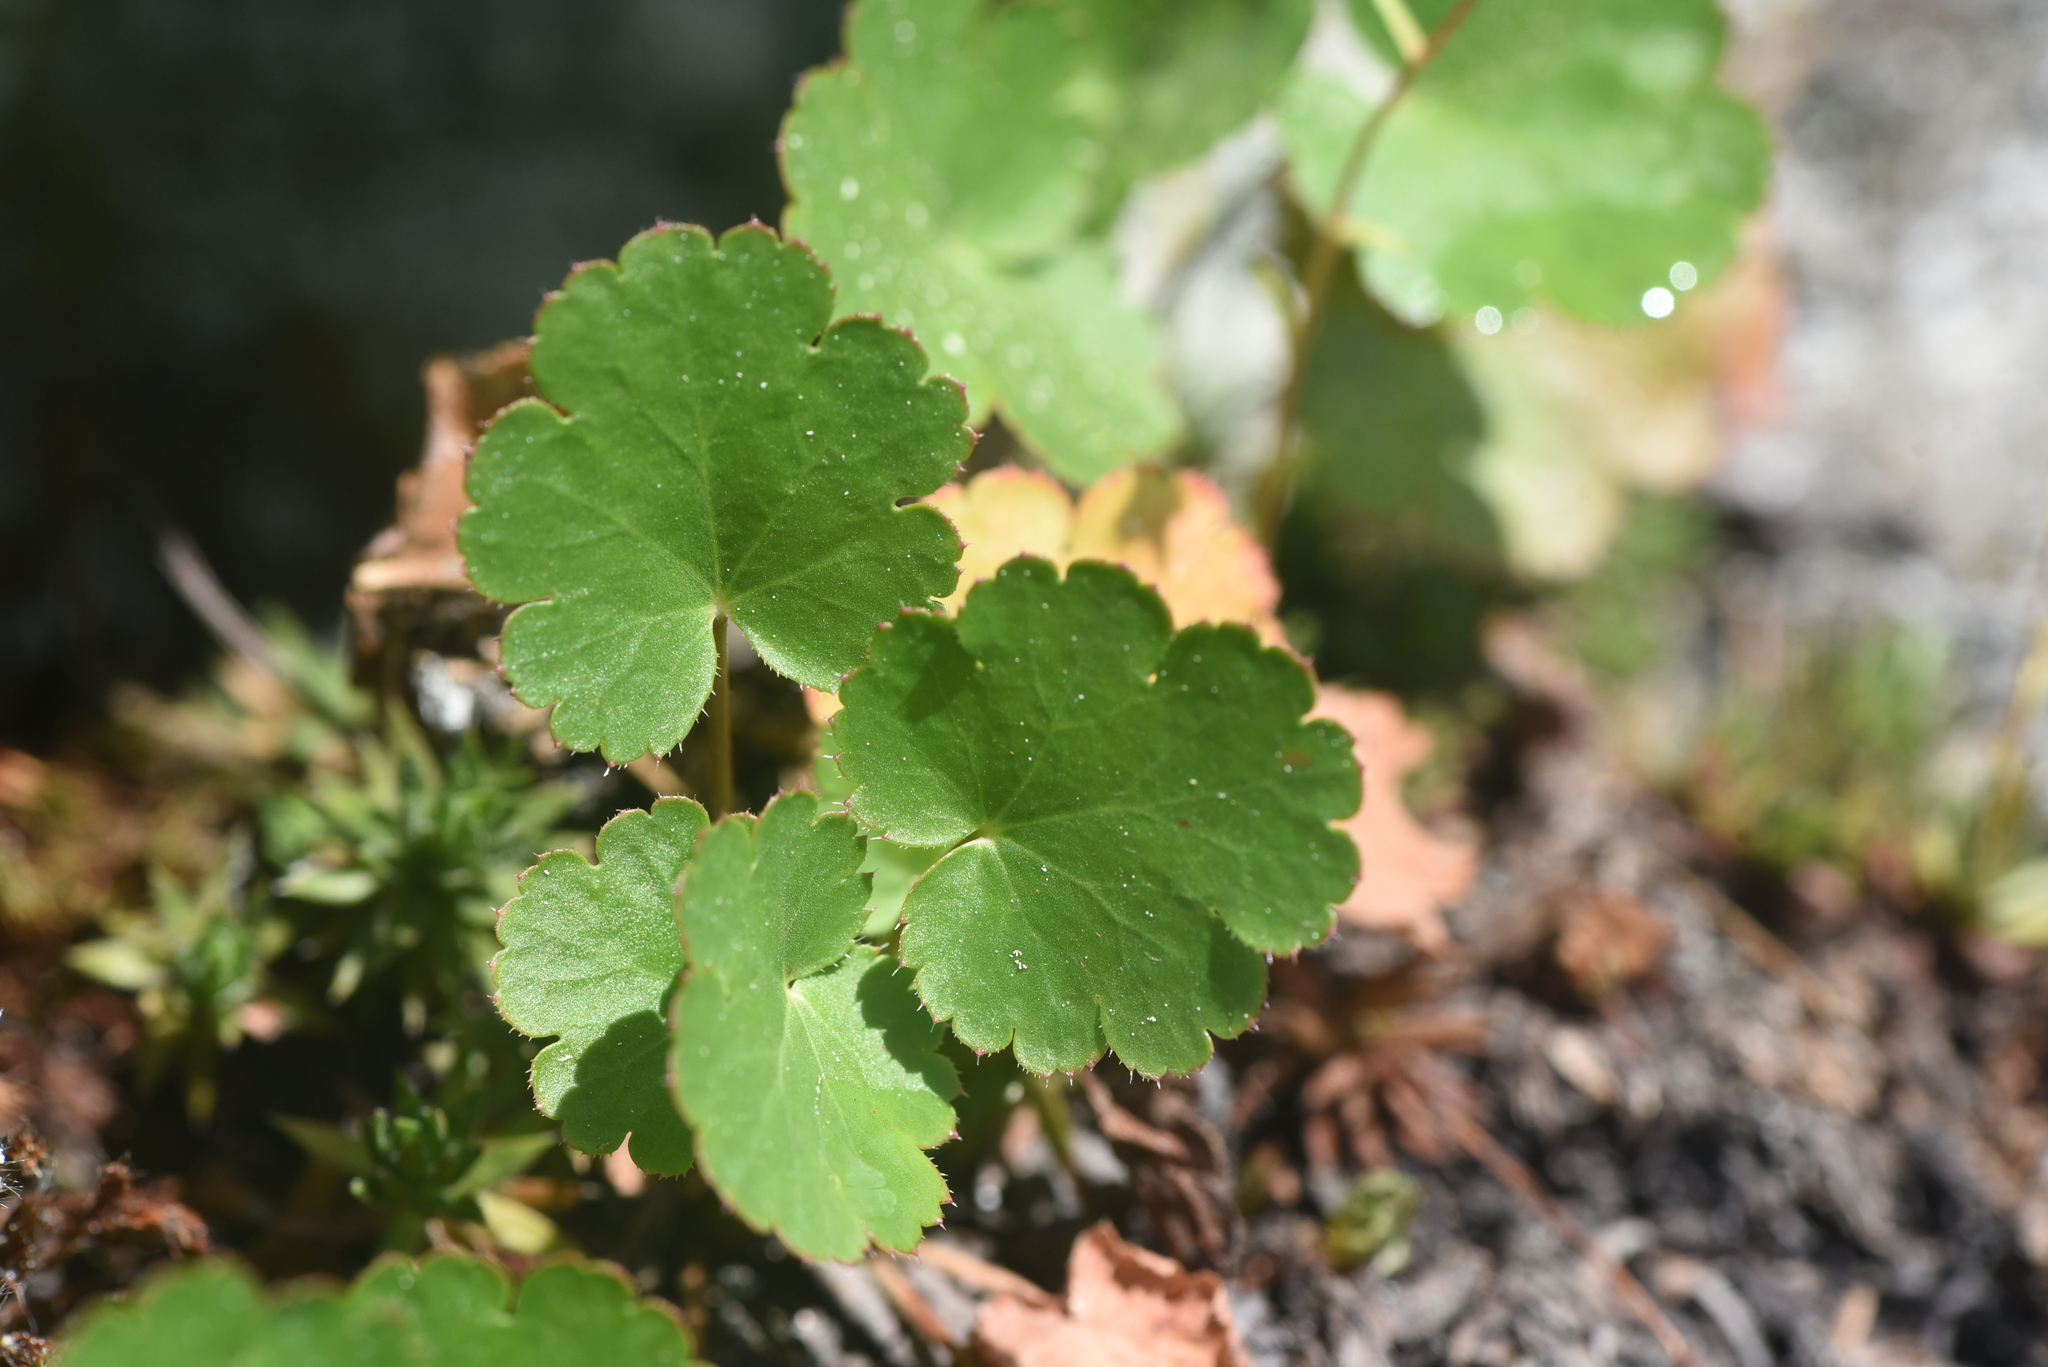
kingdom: Plantae
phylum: Tracheophyta
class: Magnoliopsida
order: Saxifragales
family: Saxifragaceae
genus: Heuchera
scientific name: Heuchera cylindrica
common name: Mat alumroot
